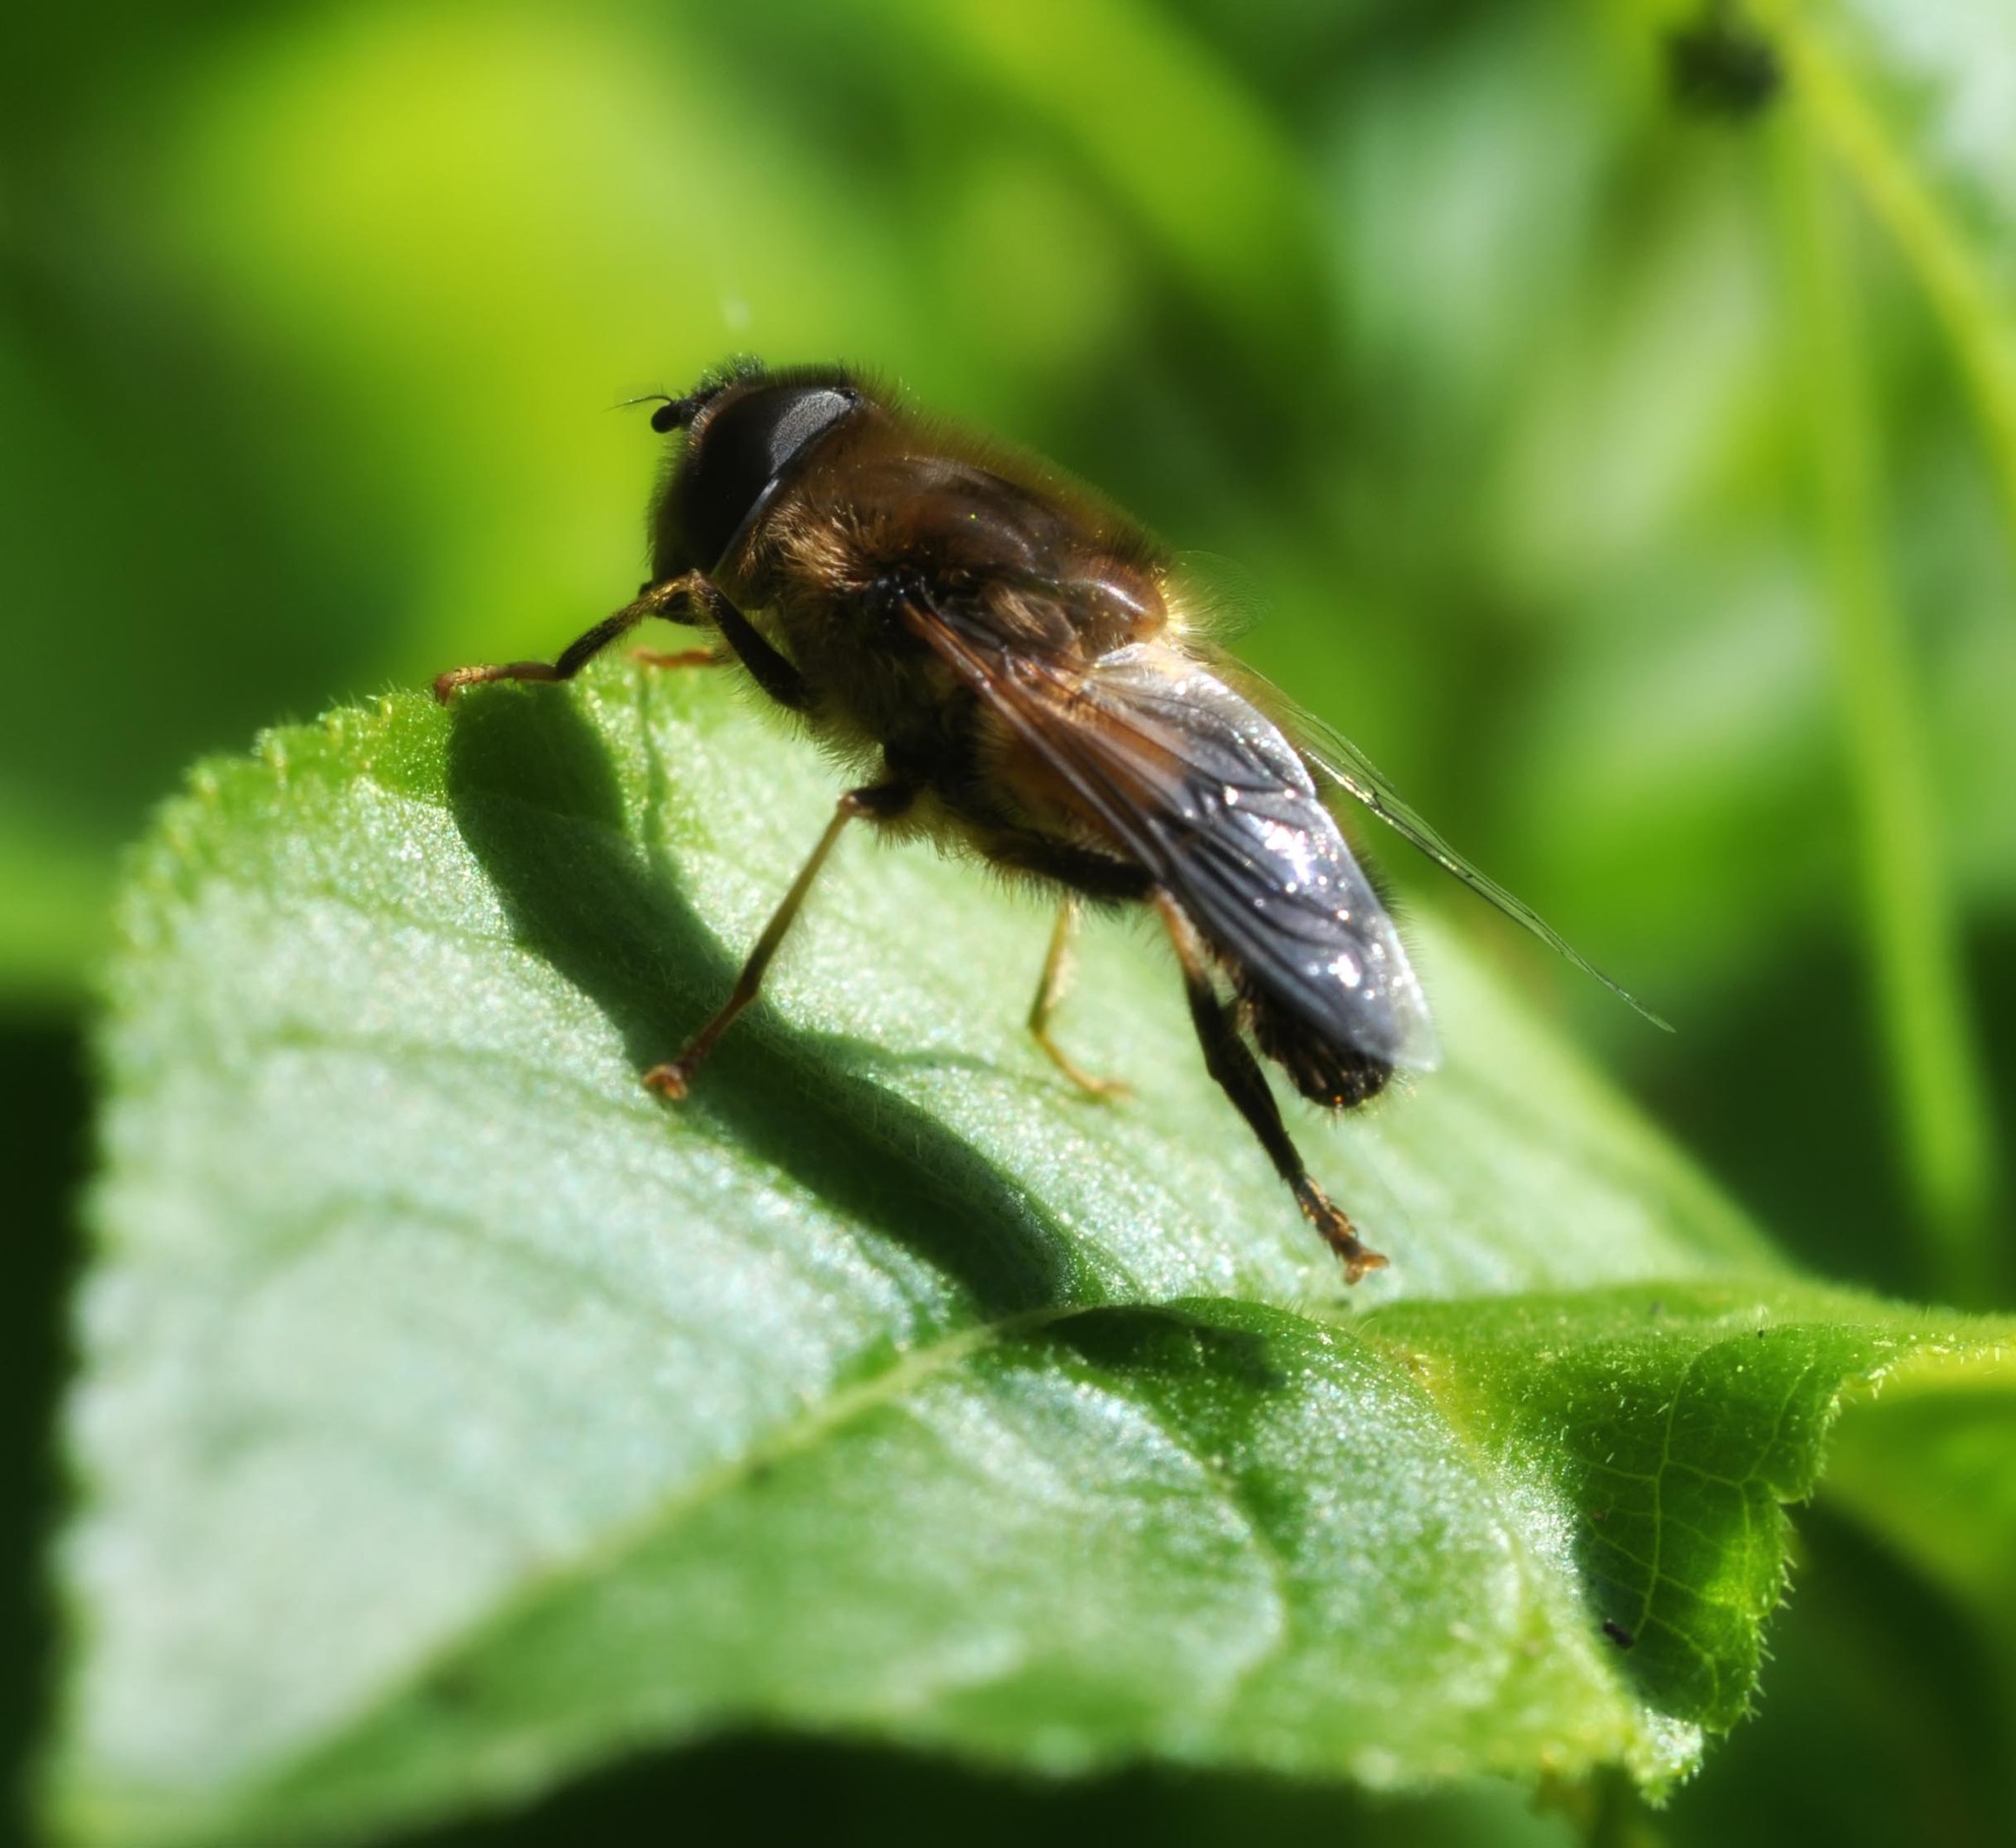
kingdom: Animalia
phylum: Arthropoda
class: Insecta
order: Diptera
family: Syrphidae
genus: Eristalis
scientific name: Eristalis pertinax
